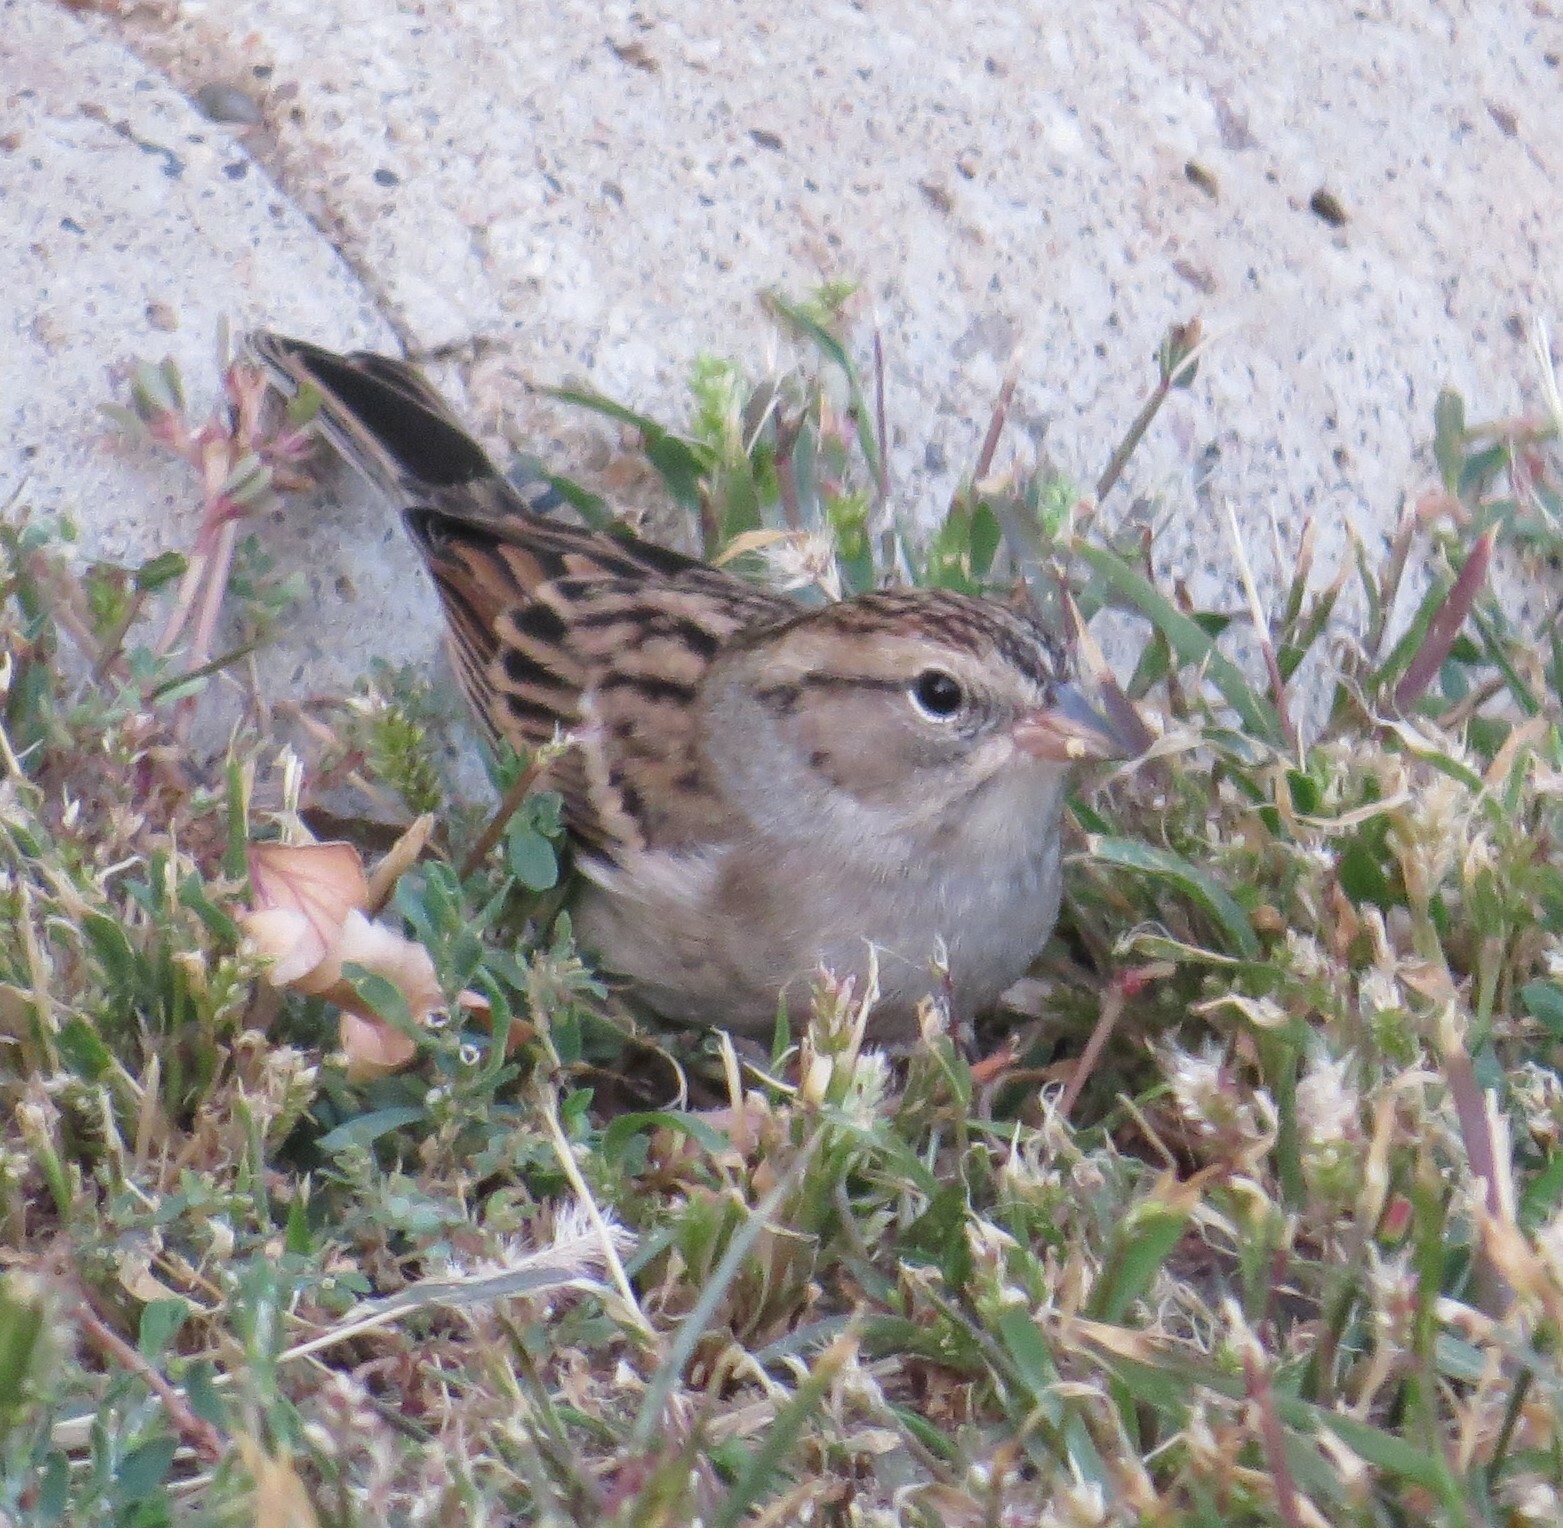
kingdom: Animalia
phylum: Chordata
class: Aves
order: Passeriformes
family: Passerellidae
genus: Spizella
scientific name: Spizella passerina
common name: Chipping sparrow
